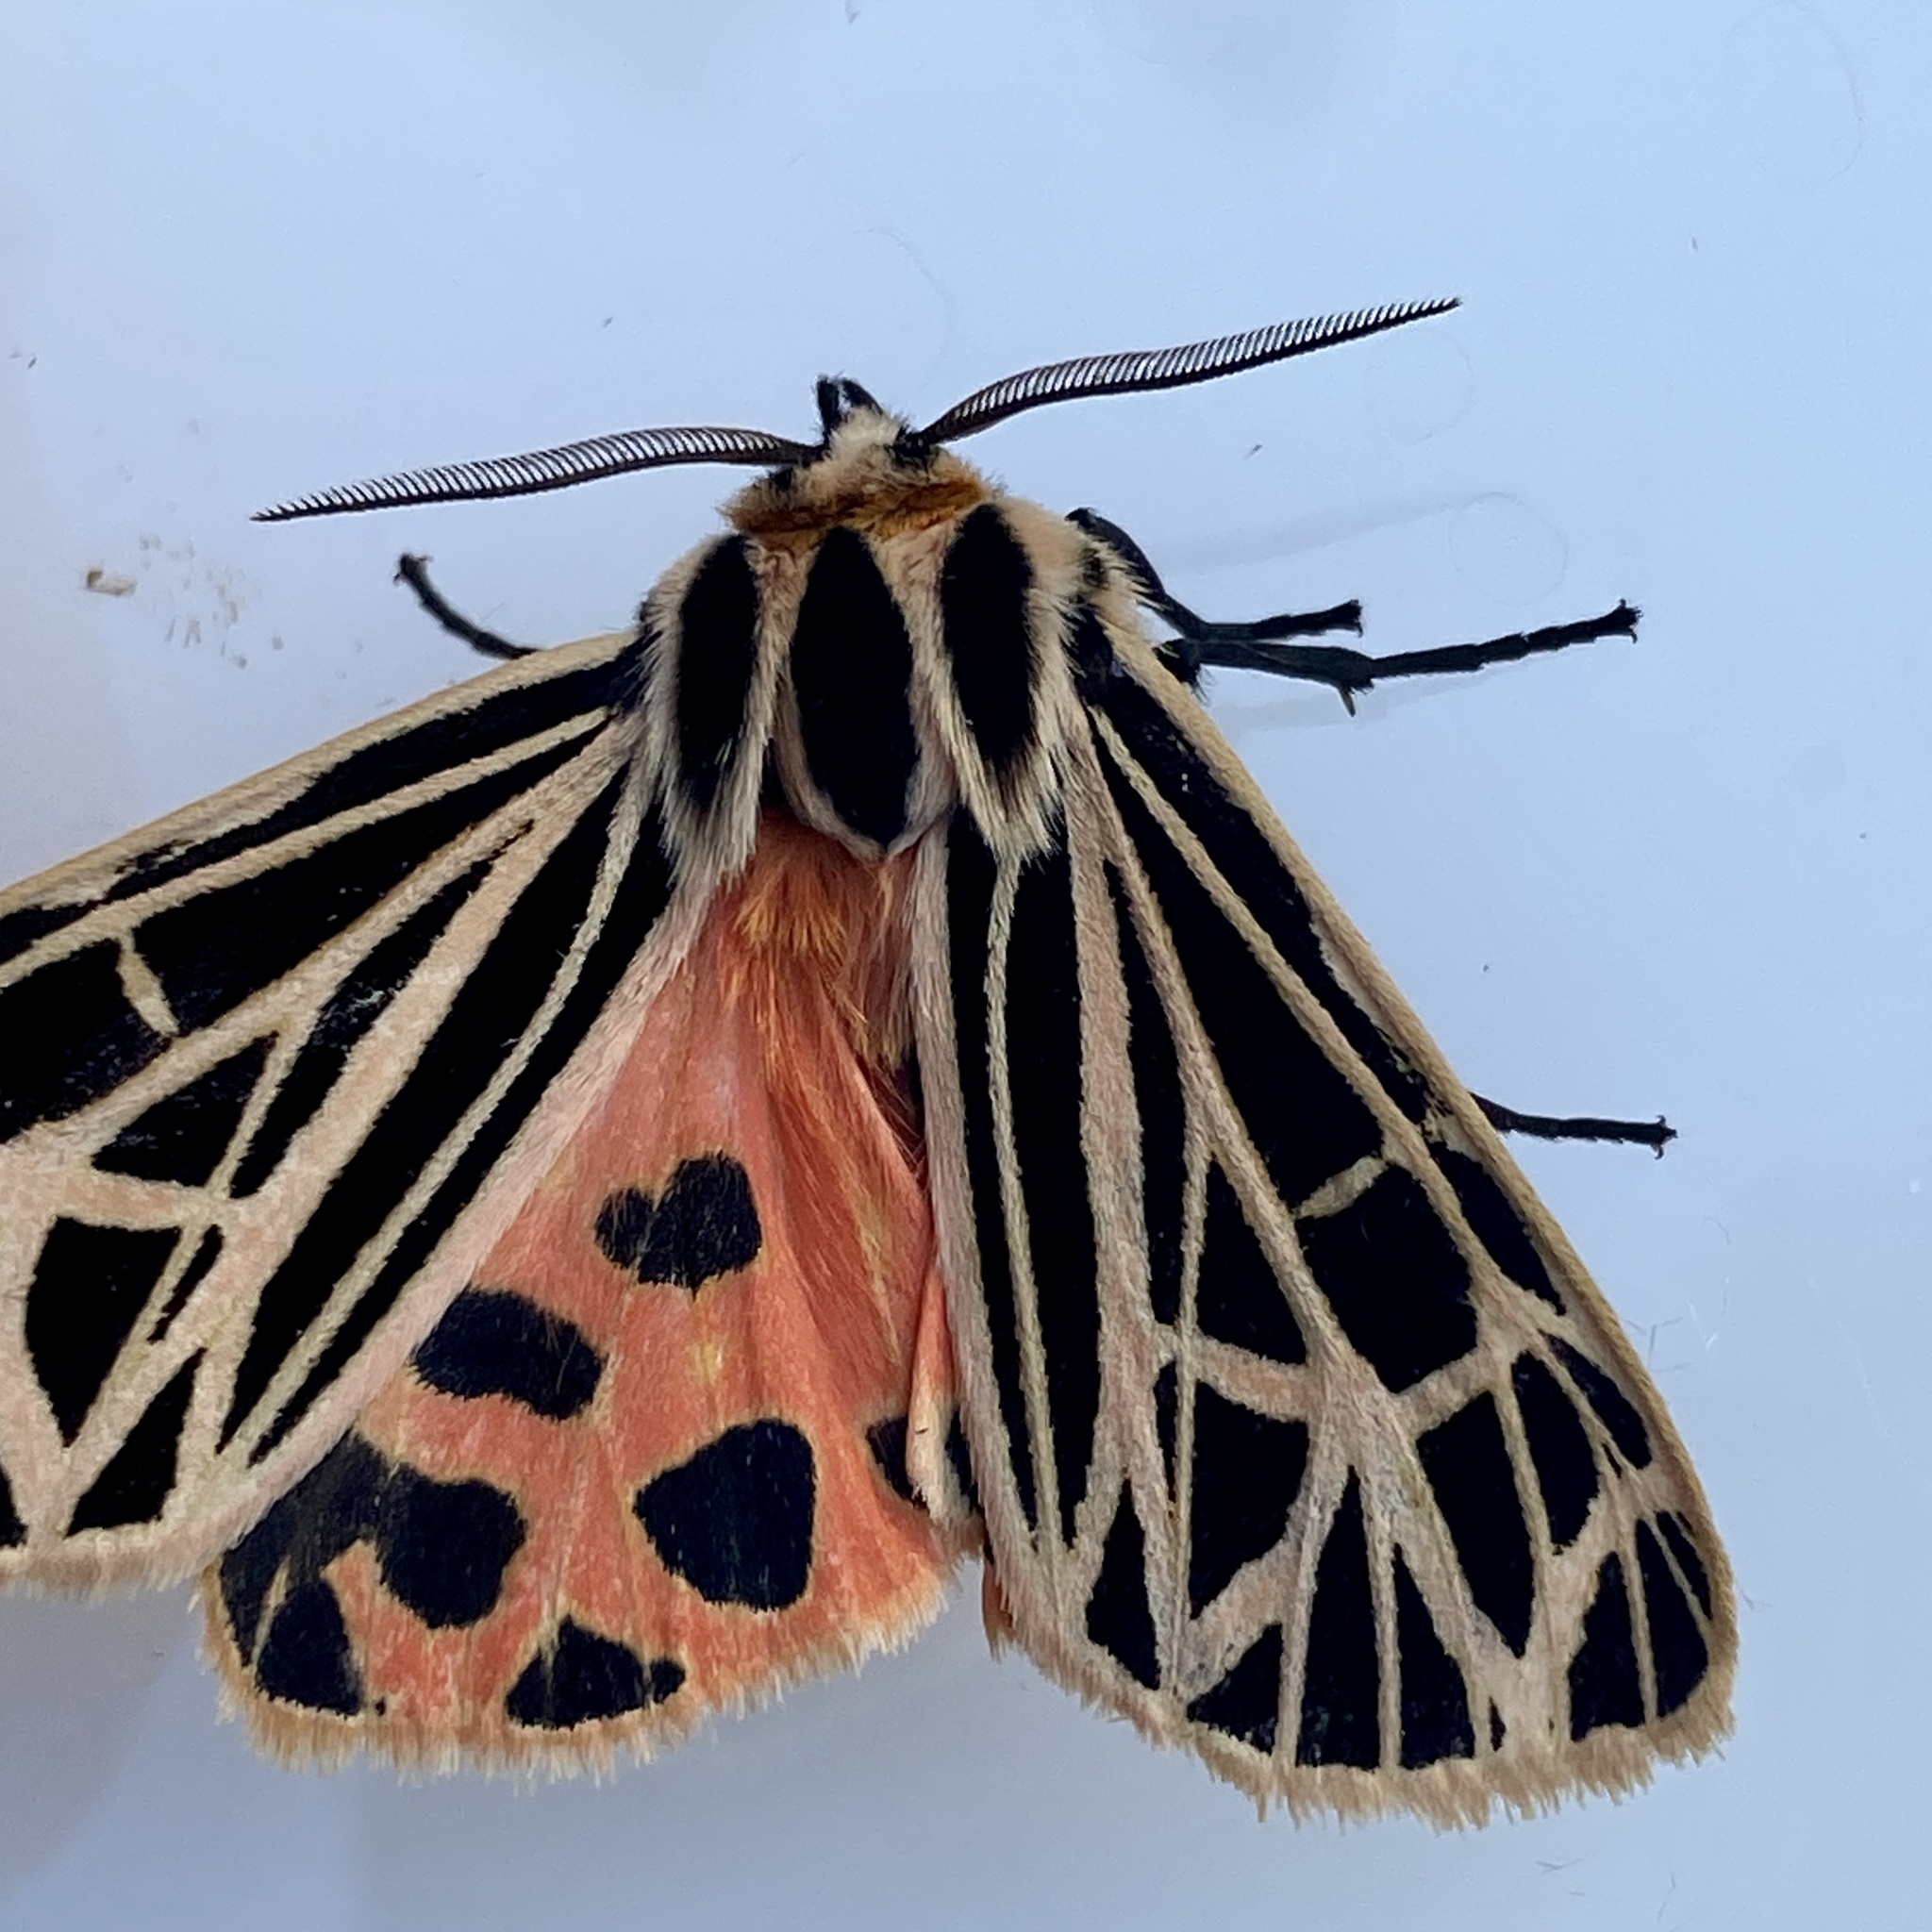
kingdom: Animalia
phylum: Arthropoda
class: Insecta
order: Lepidoptera
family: Erebidae
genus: Grammia
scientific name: Grammia virgo
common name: Virgin tiger moth
